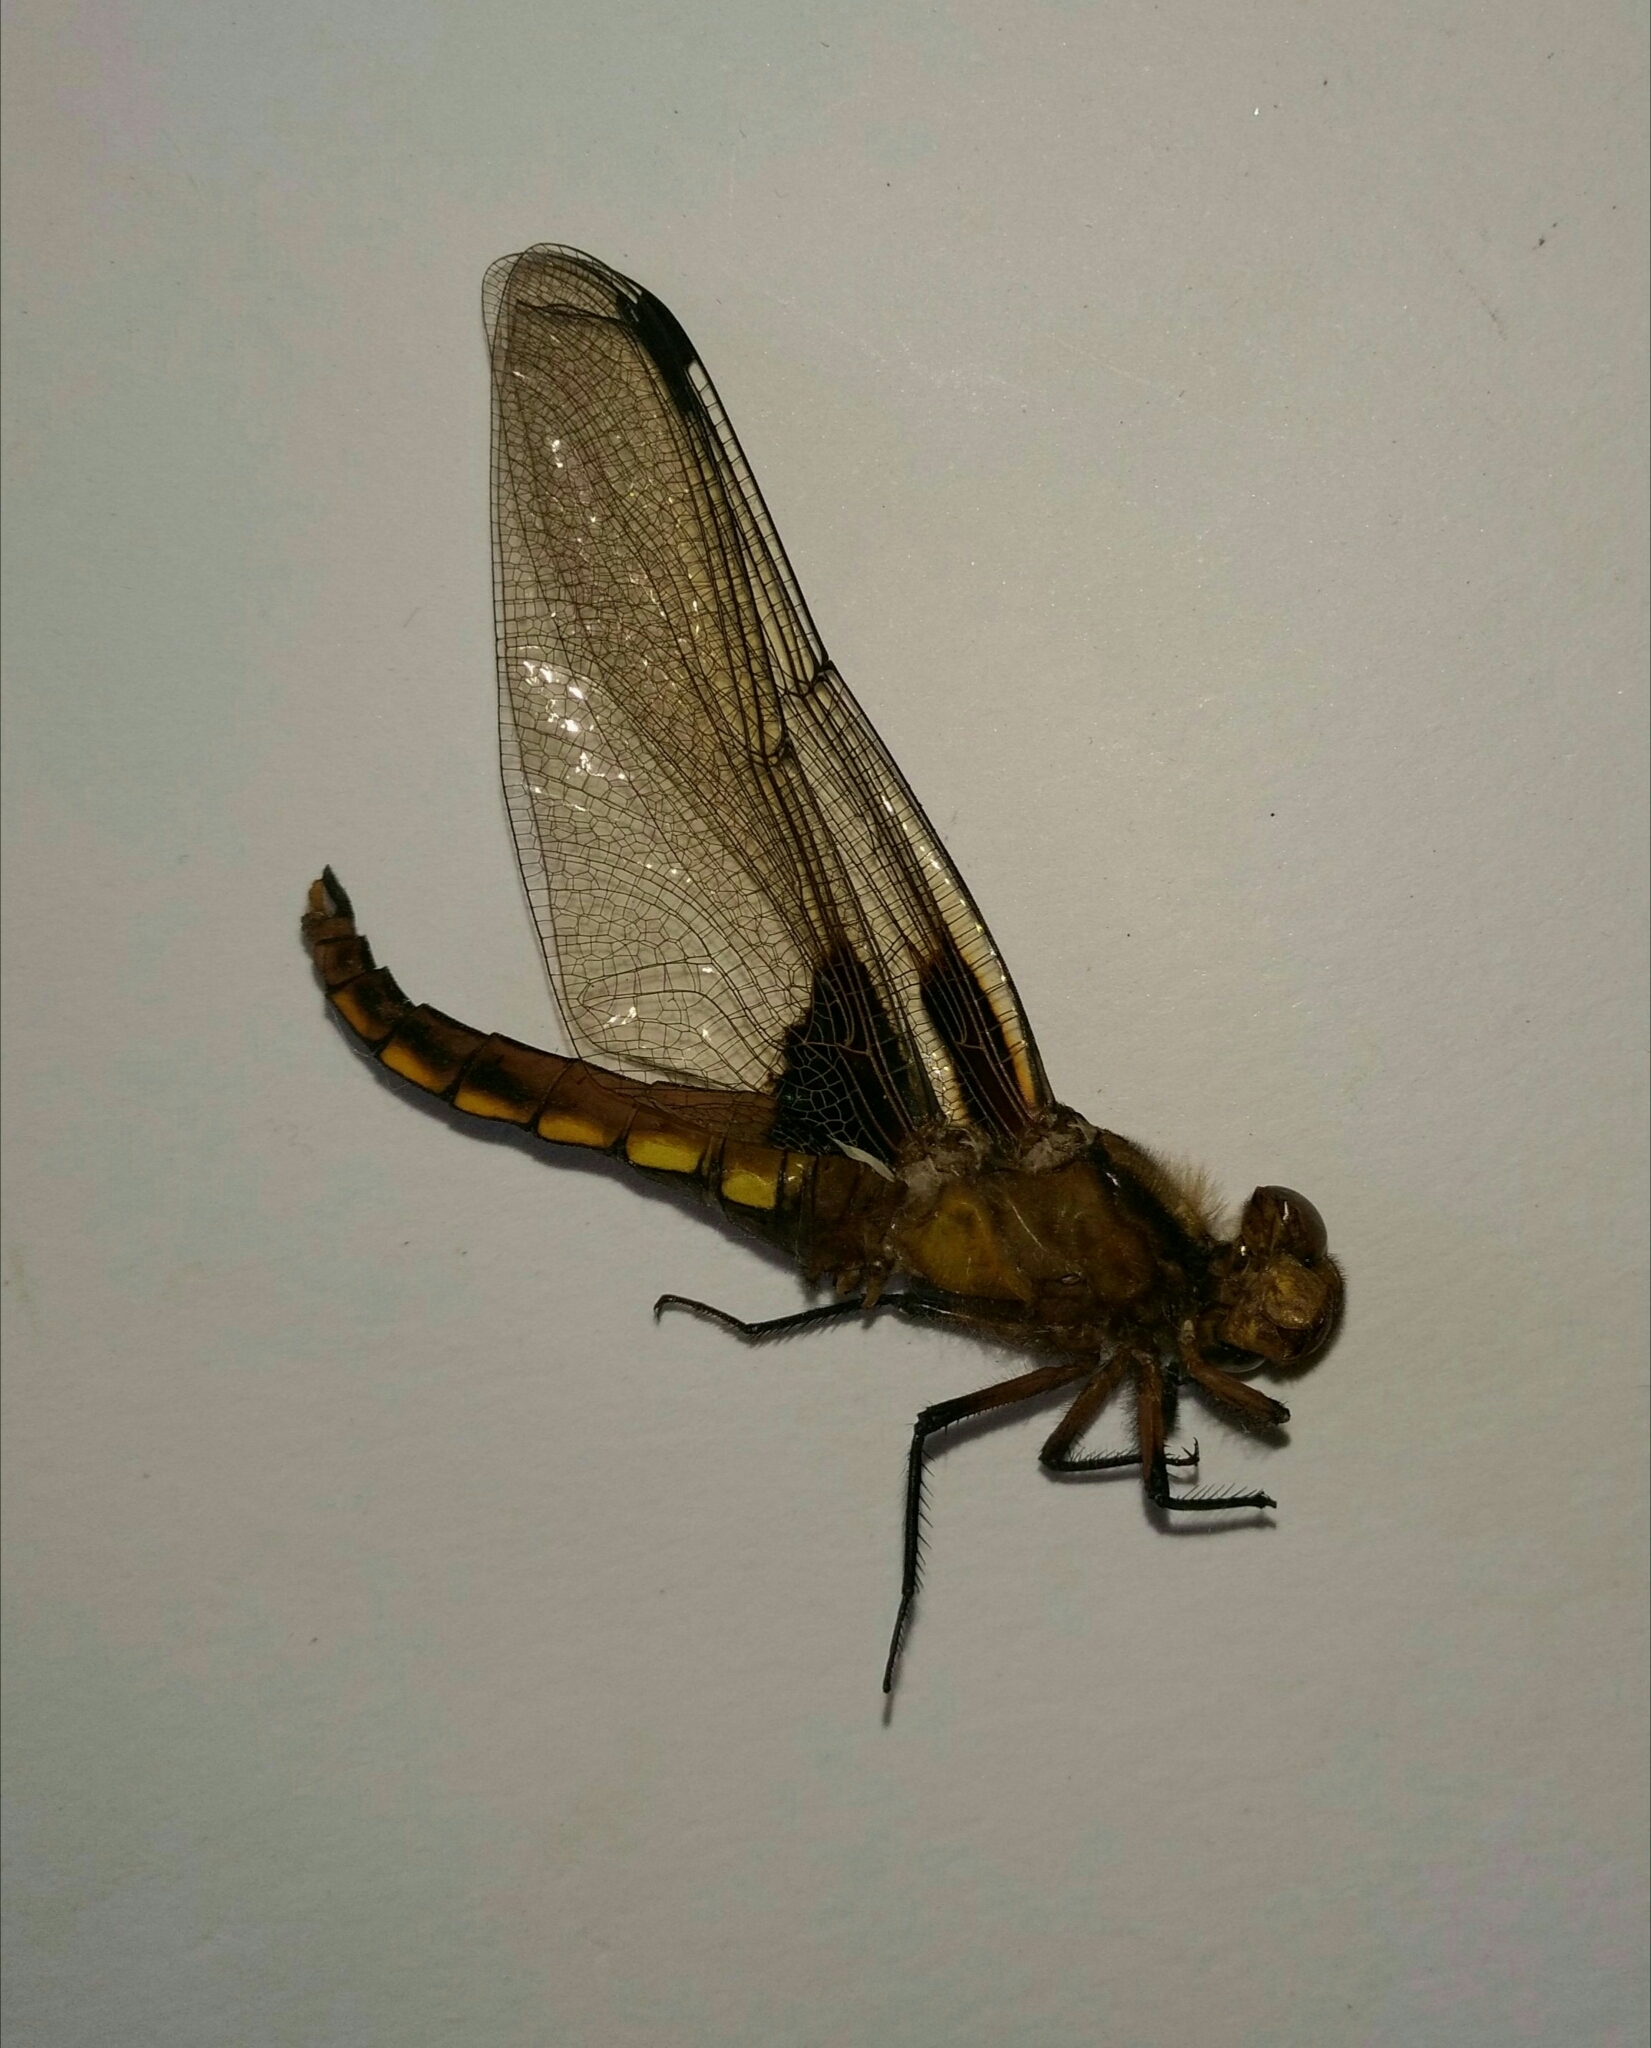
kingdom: Animalia
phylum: Arthropoda
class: Insecta
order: Odonata
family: Libellulidae
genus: Libellula
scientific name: Libellula depressa
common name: Broad-bodied chaser
